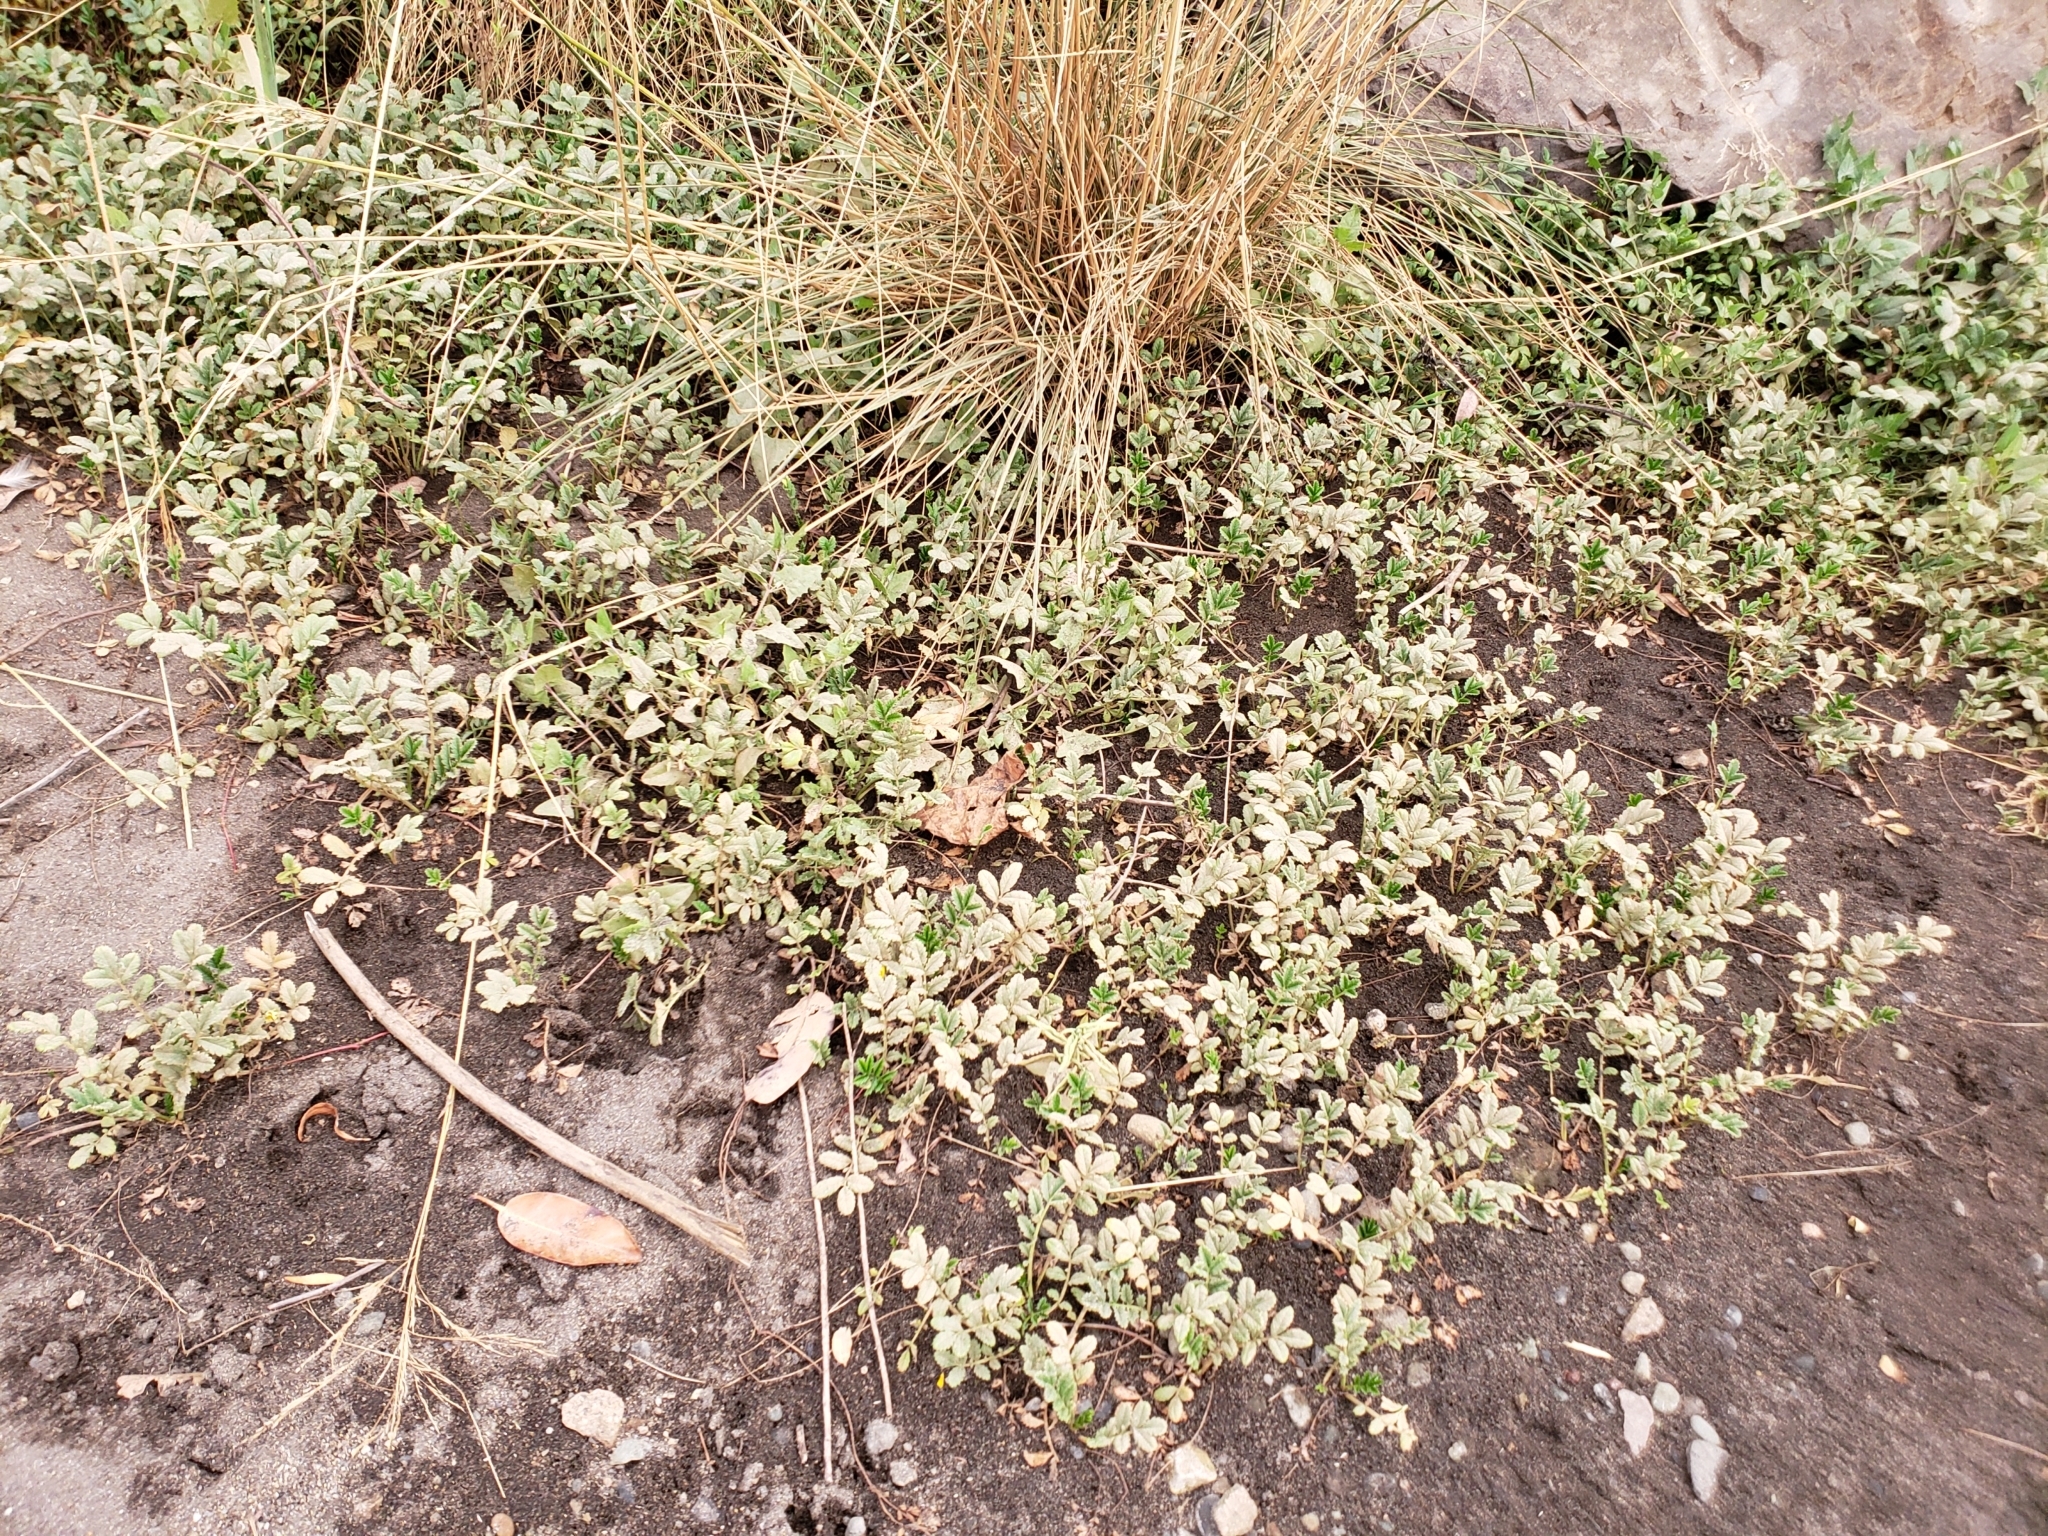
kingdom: Plantae
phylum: Tracheophyta
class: Magnoliopsida
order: Rosales
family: Rosaceae
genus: Argentina
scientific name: Argentina anserina
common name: Common silverweed
